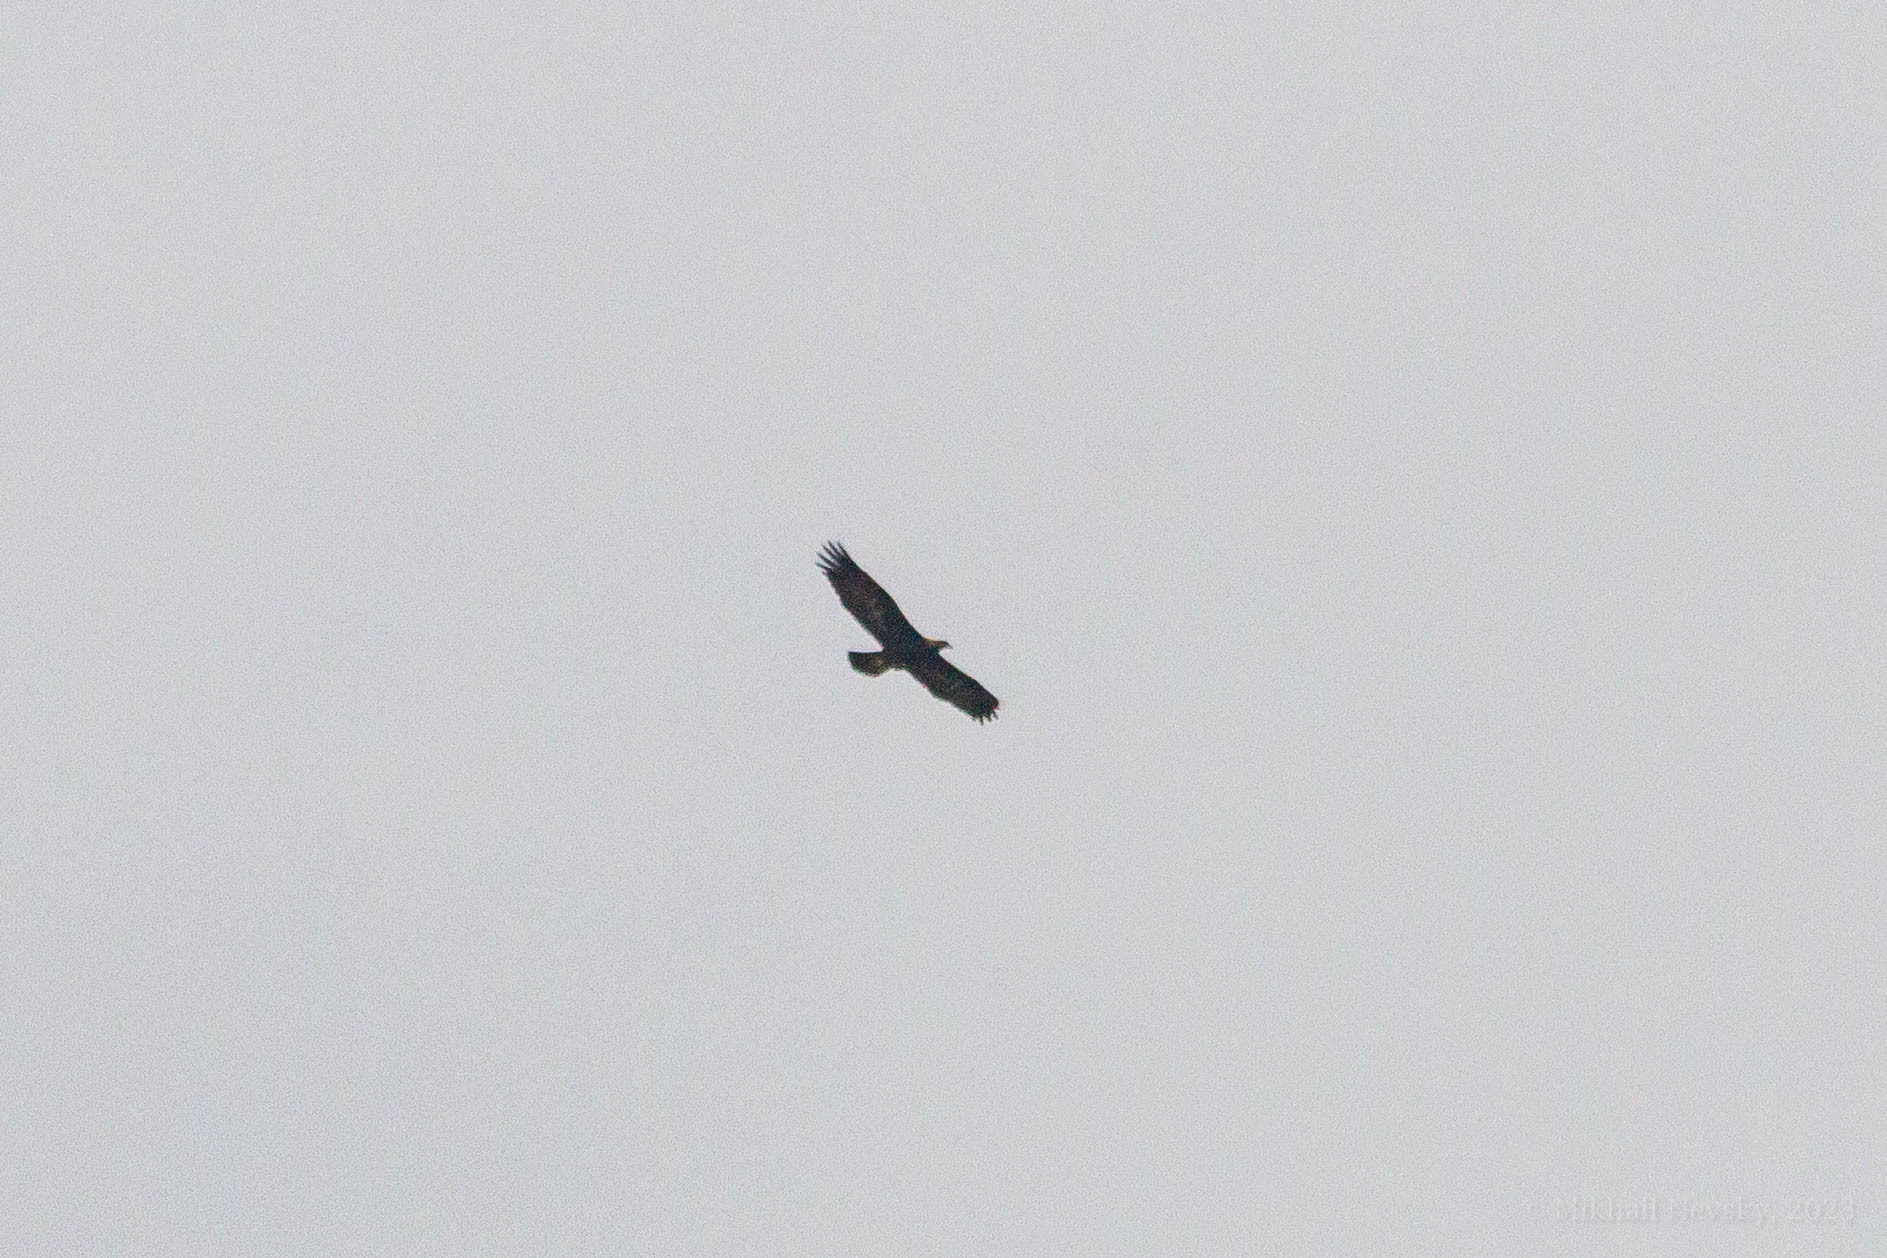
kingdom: Animalia
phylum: Chordata
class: Aves
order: Accipitriformes
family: Accipitridae
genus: Aquila
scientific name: Aquila chrysaetos
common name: Golden eagle
